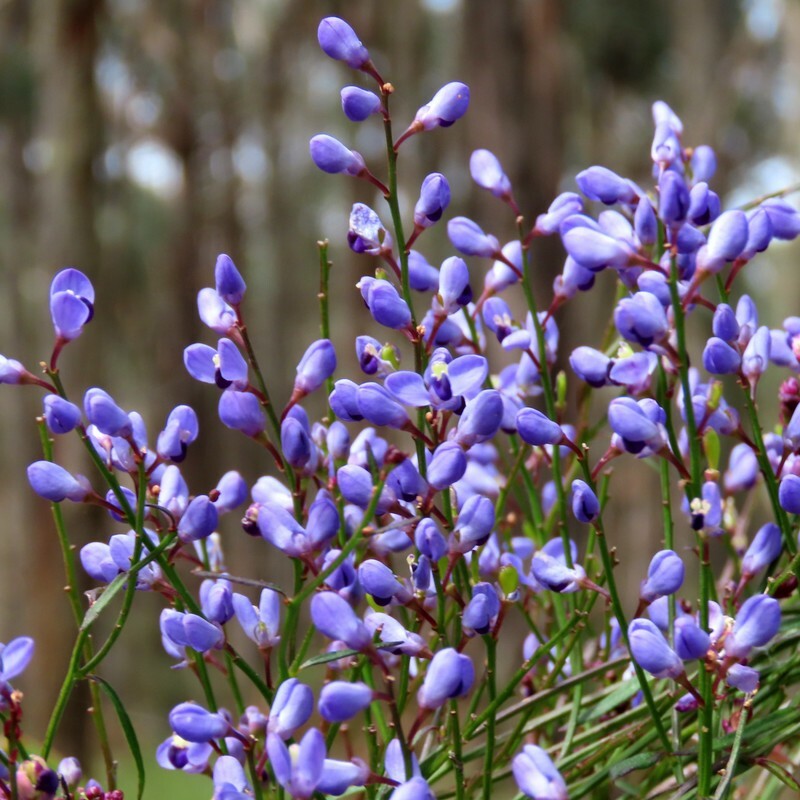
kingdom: Plantae
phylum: Tracheophyta
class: Magnoliopsida
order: Fabales
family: Polygalaceae
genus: Comesperma
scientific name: Comesperma volubile
